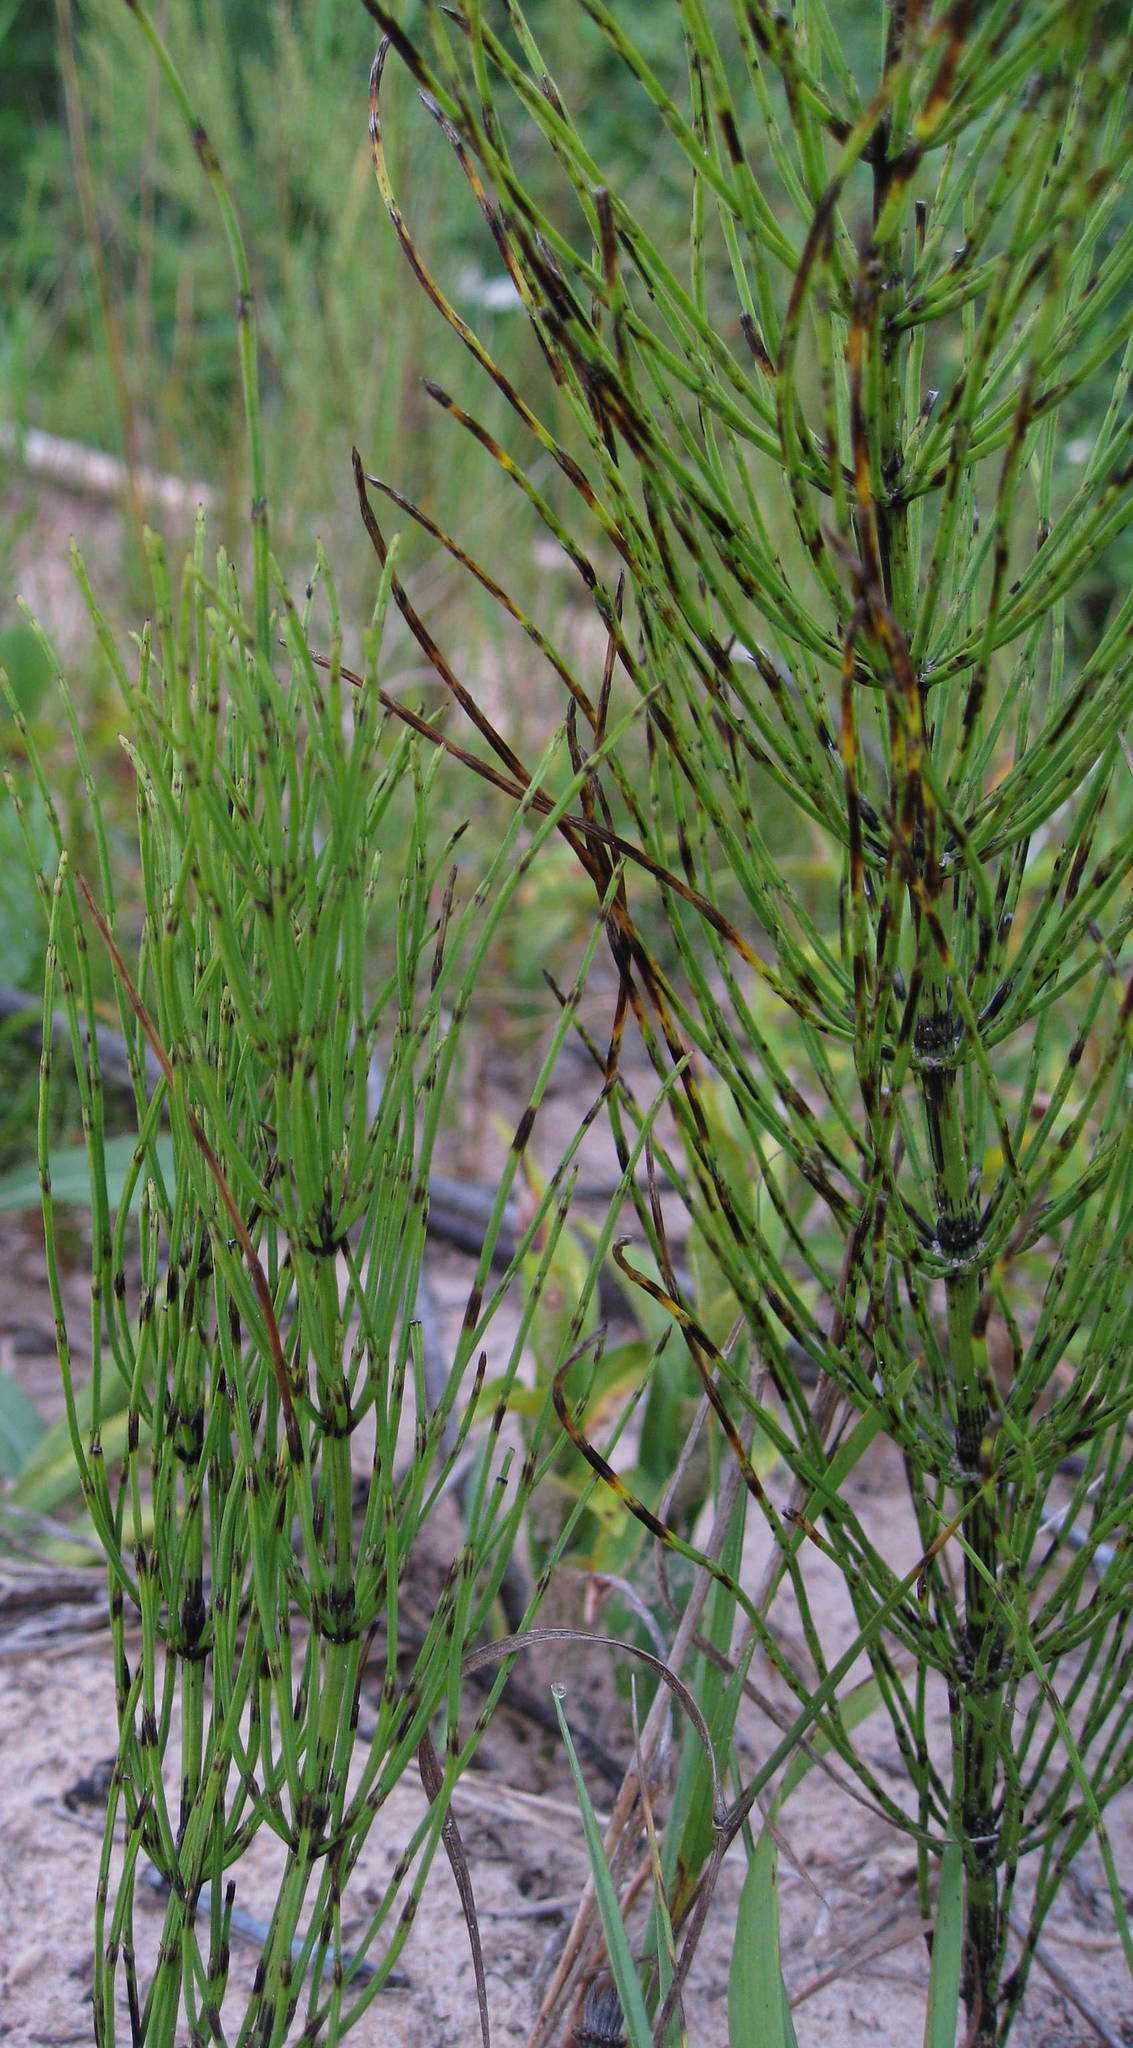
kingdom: Plantae
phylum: Tracheophyta
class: Polypodiopsida
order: Equisetales
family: Equisetaceae
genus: Equisetum
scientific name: Equisetum arvense
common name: Field horsetail
